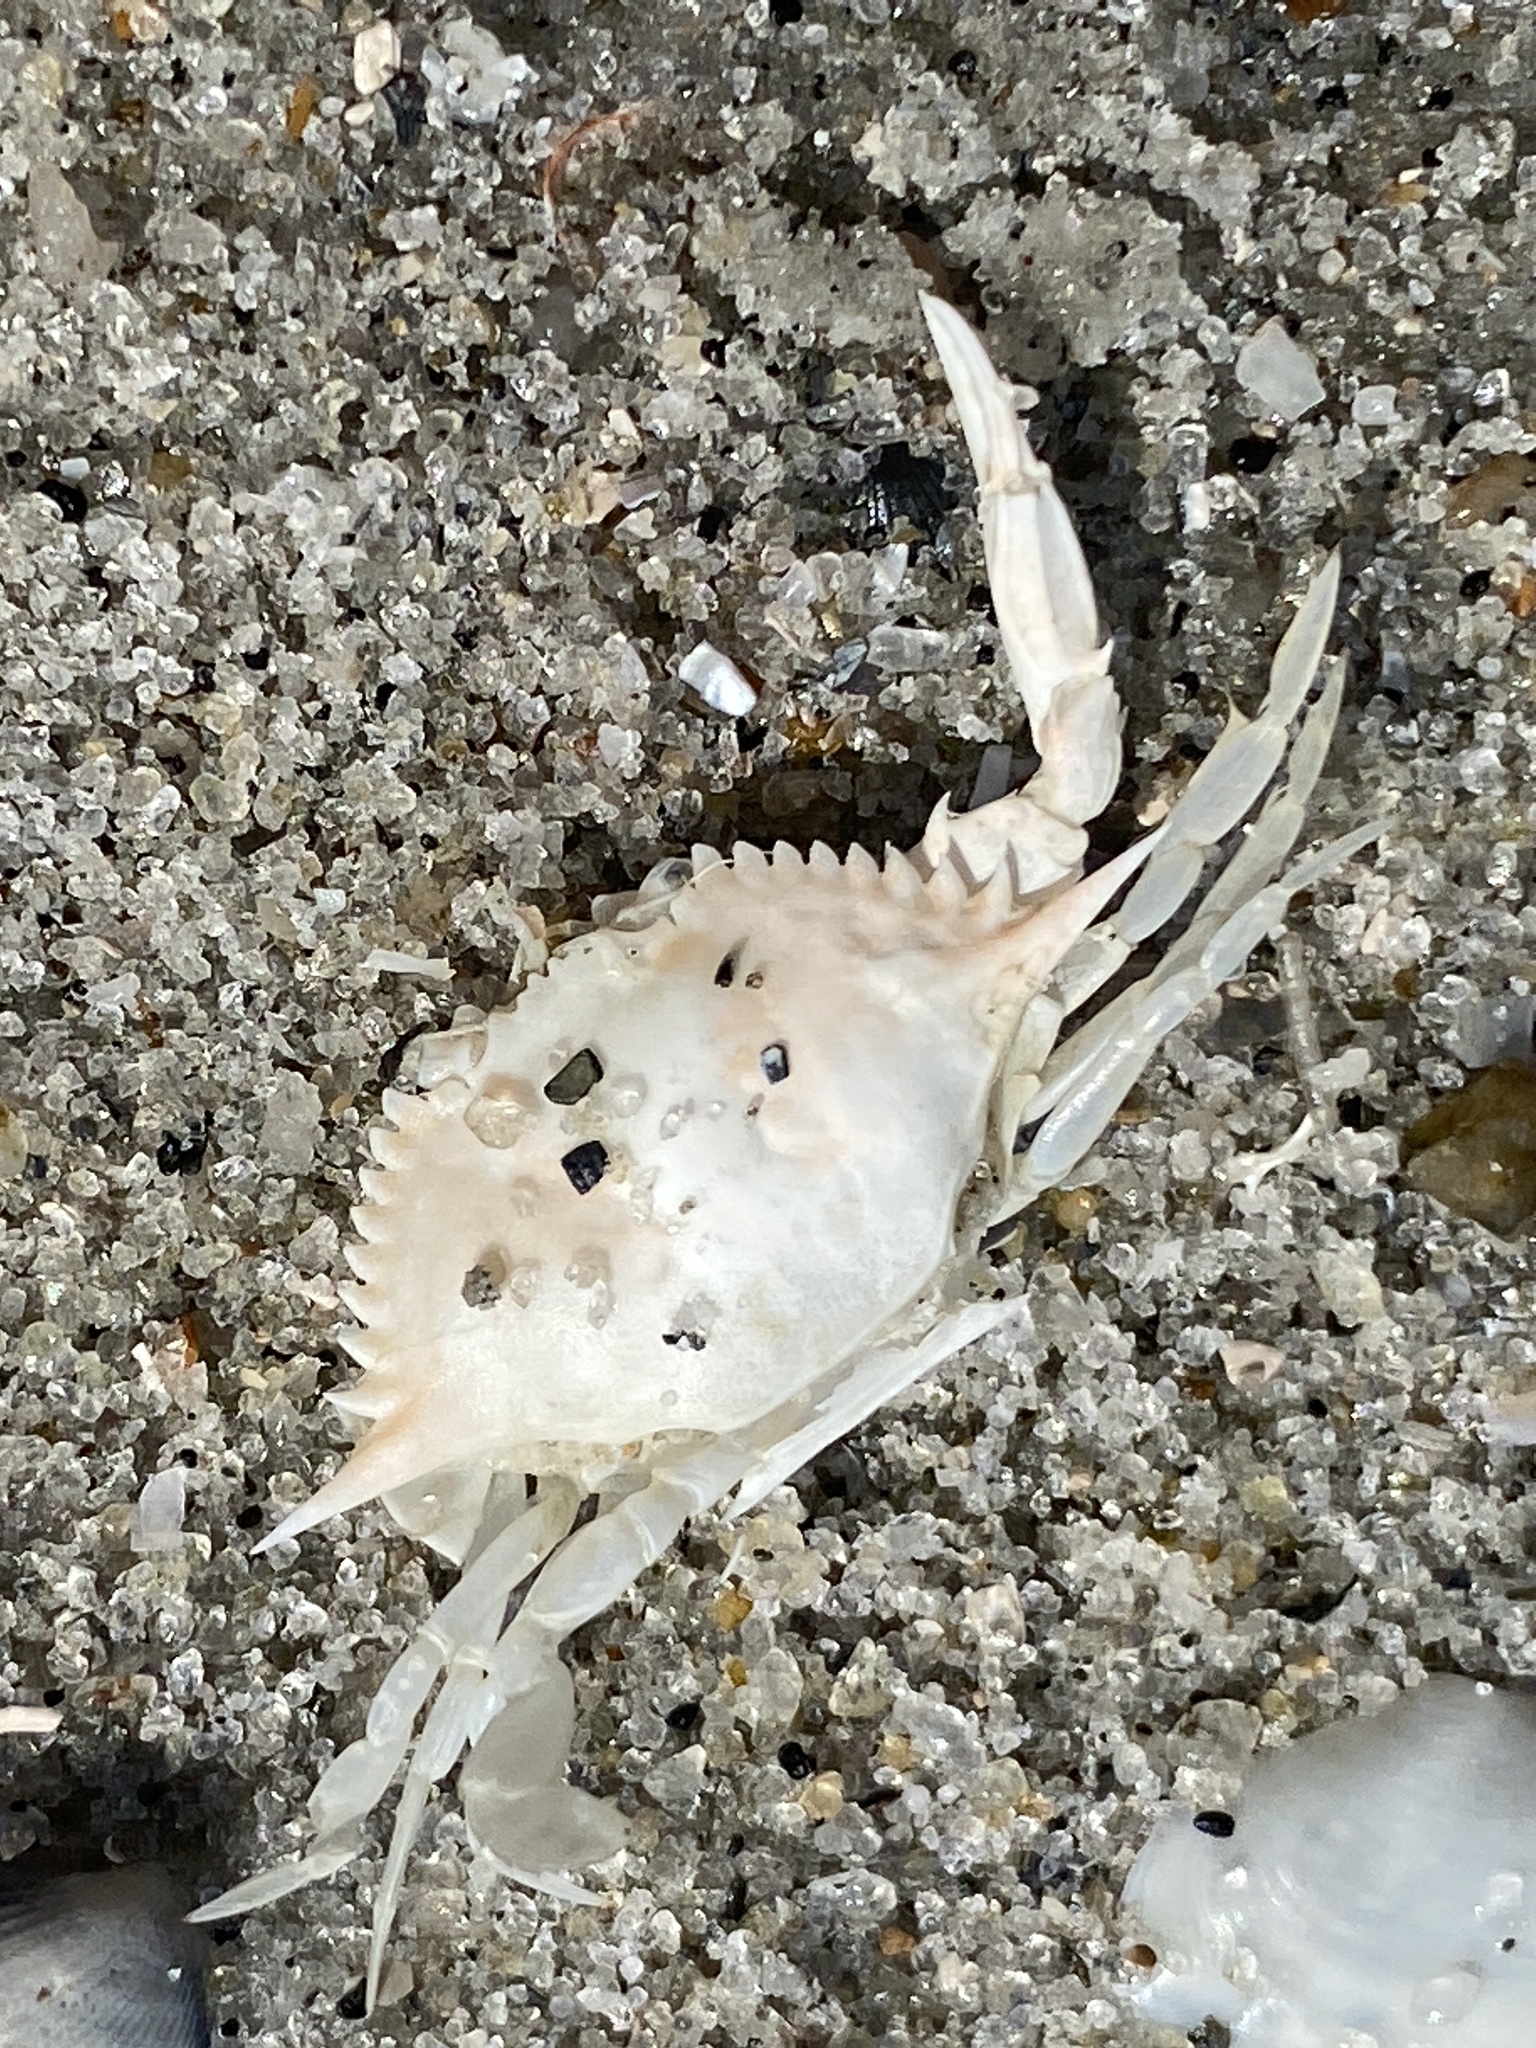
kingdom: Animalia
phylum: Arthropoda
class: Malacostraca
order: Decapoda
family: Portunidae
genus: Callinectes
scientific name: Callinectes ornatus
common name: Ornate crab
